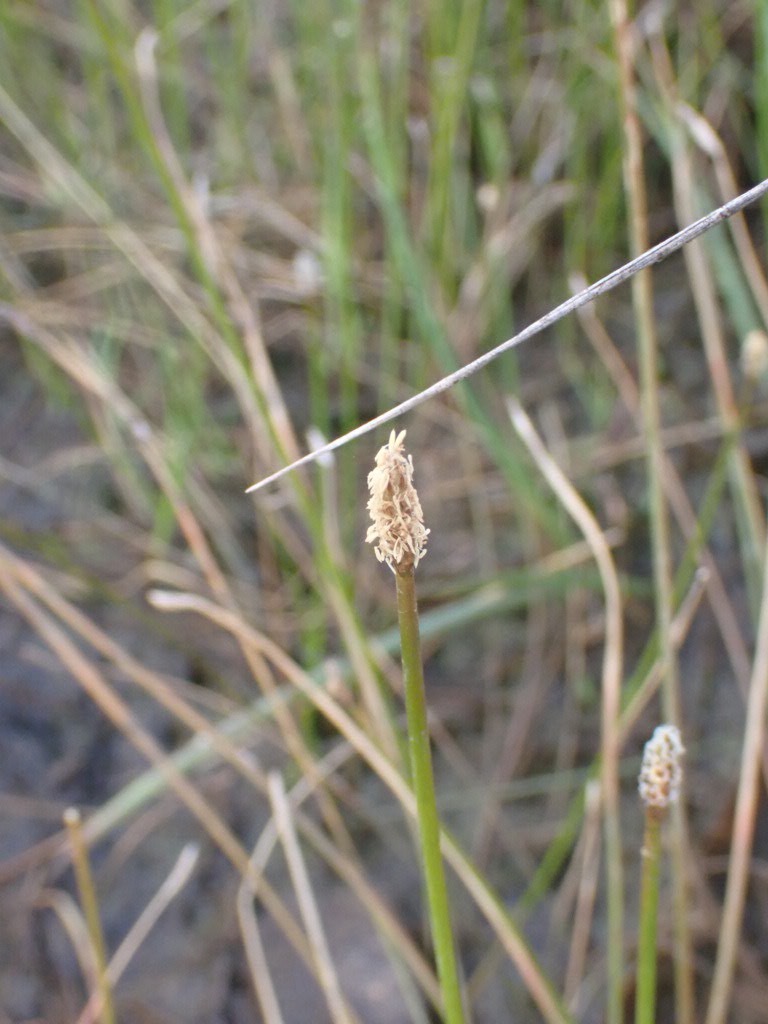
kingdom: Plantae
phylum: Tracheophyta
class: Liliopsida
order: Poales
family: Cyperaceae
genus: Eleocharis
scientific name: Eleocharis acuta
